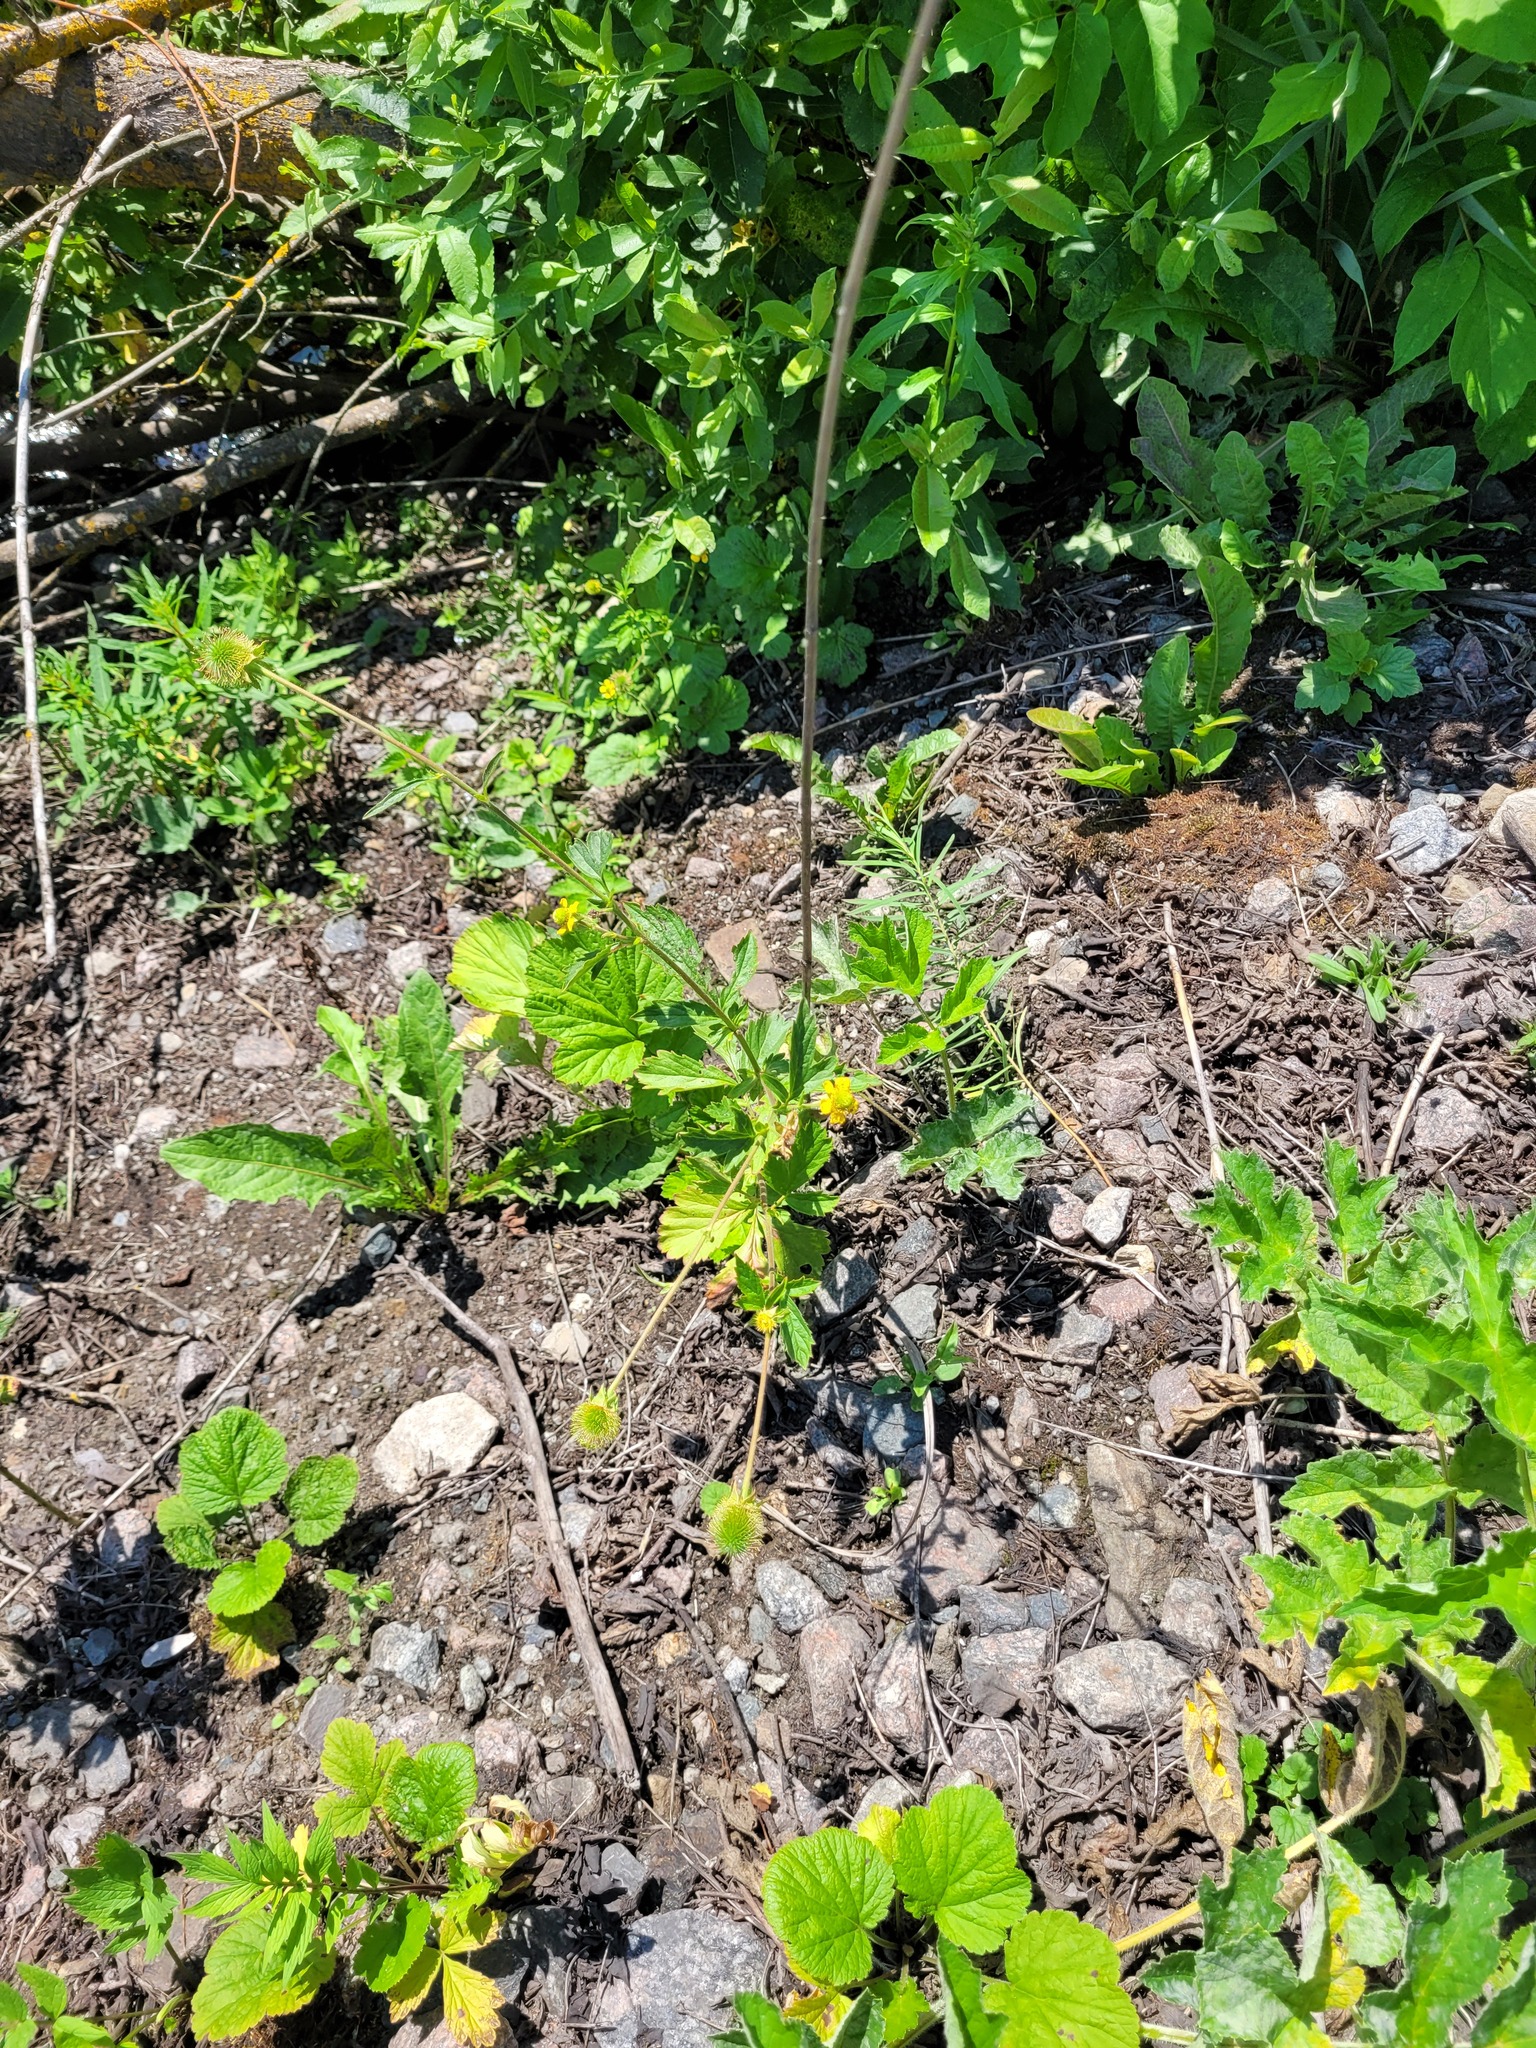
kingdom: Plantae
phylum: Tracheophyta
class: Magnoliopsida
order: Rosales
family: Rosaceae
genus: Geum
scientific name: Geum aleppicum
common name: Yellow avens
